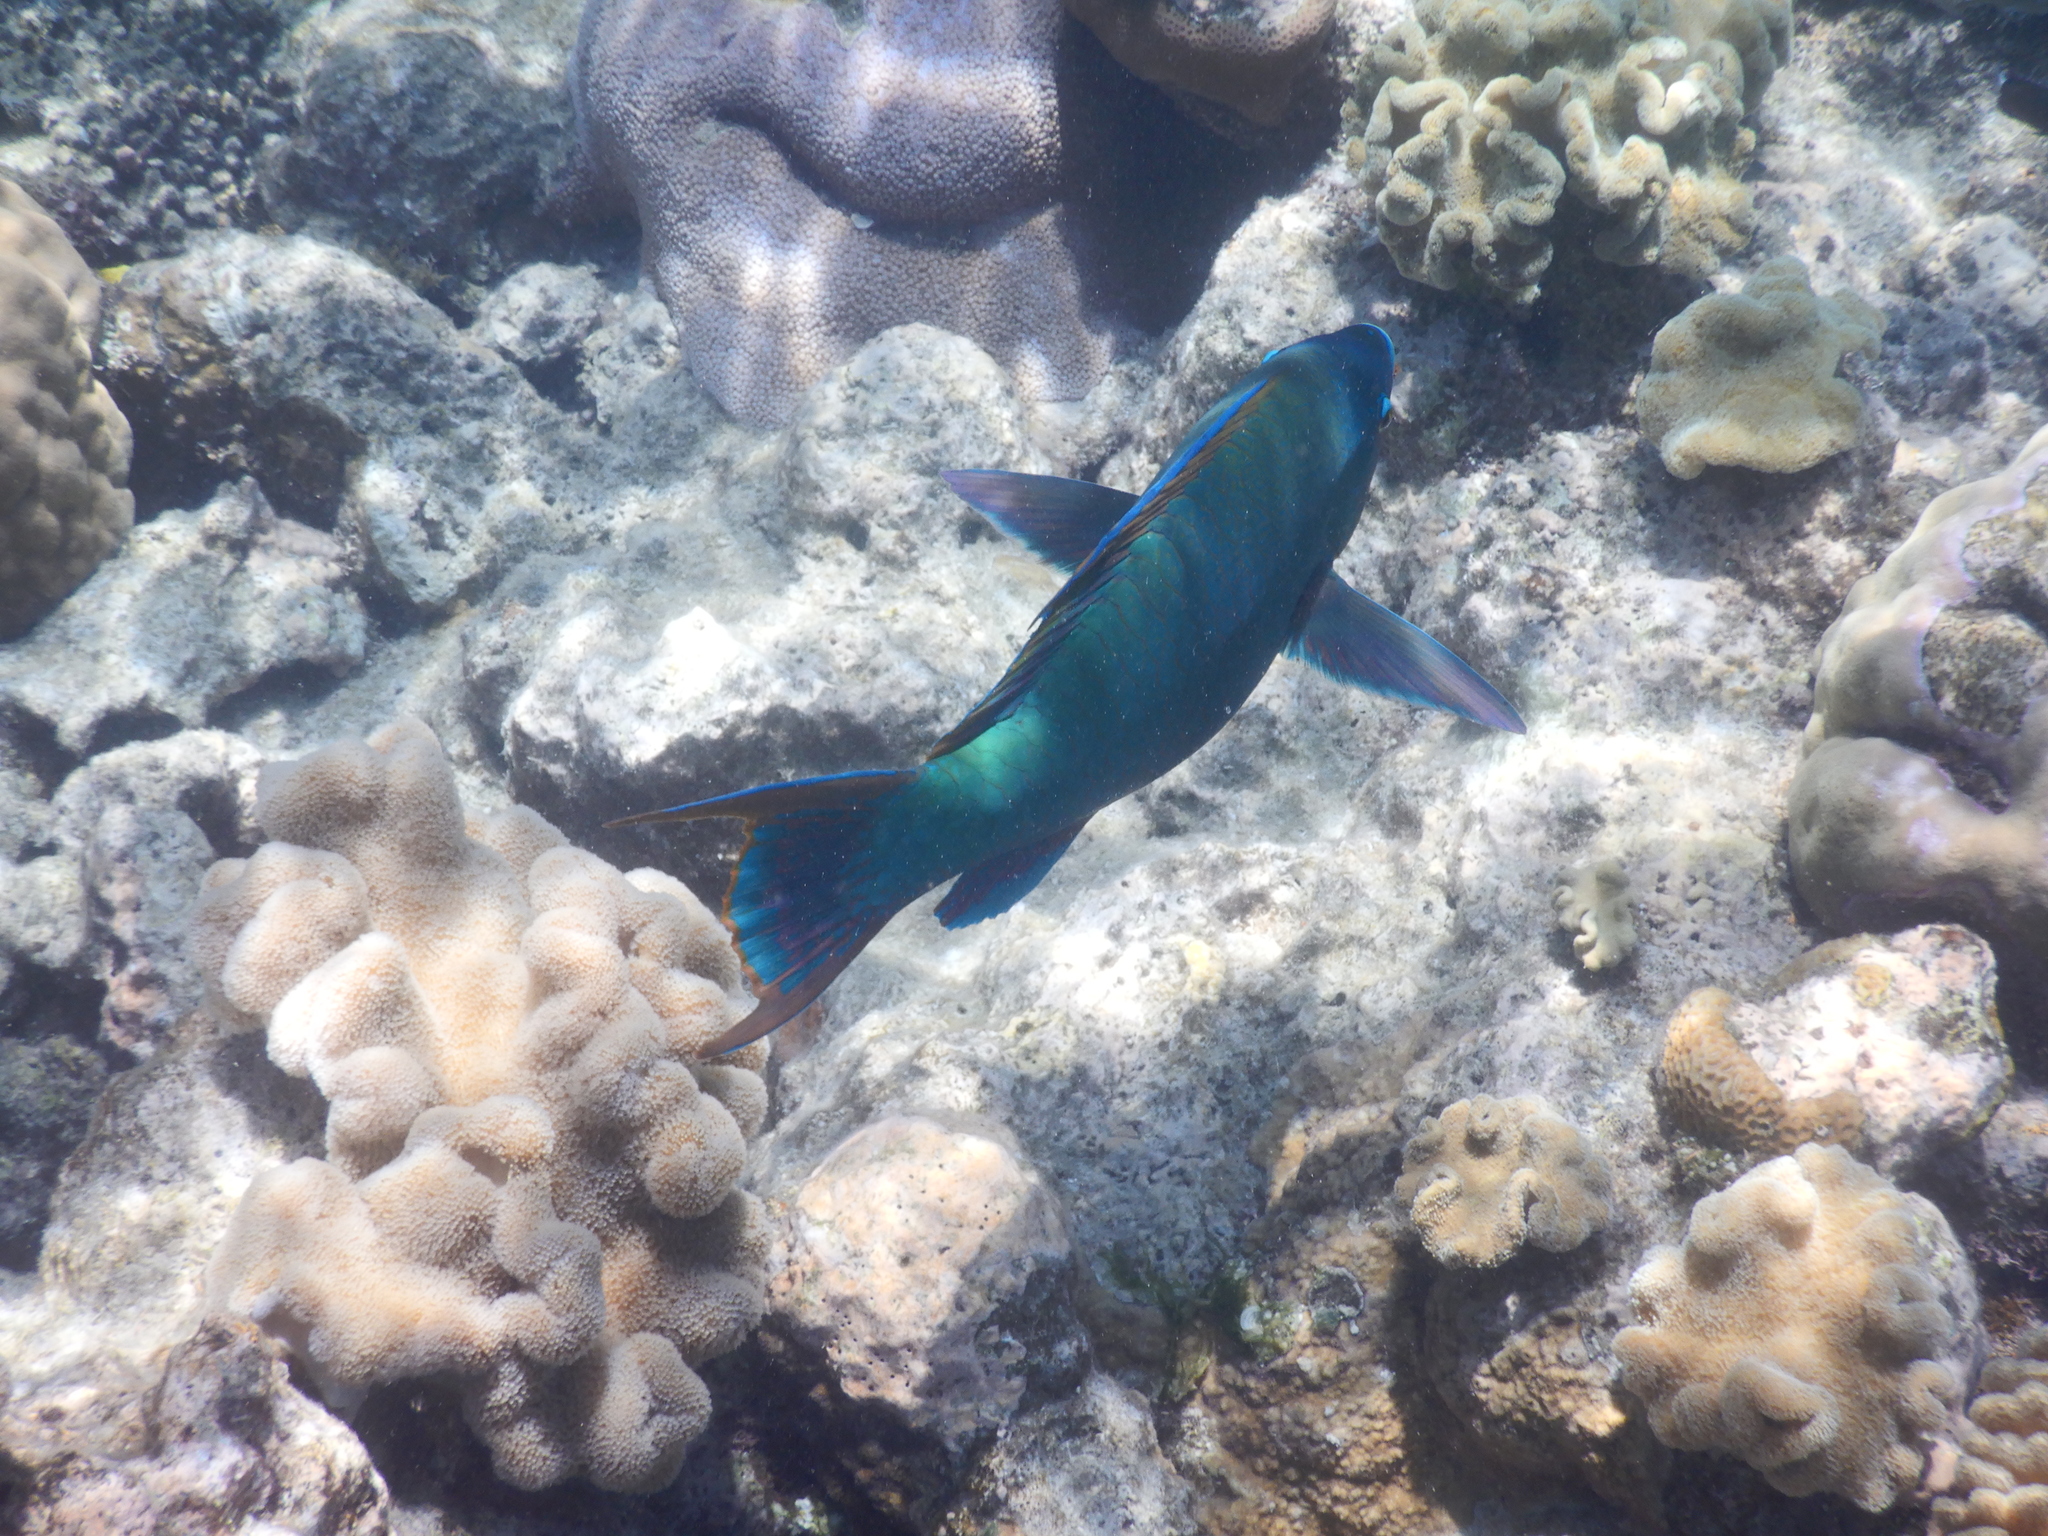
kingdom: Animalia
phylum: Chordata
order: Perciformes
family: Scaridae
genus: Scarus
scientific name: Scarus altipinnis
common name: Minifin parrotfish
